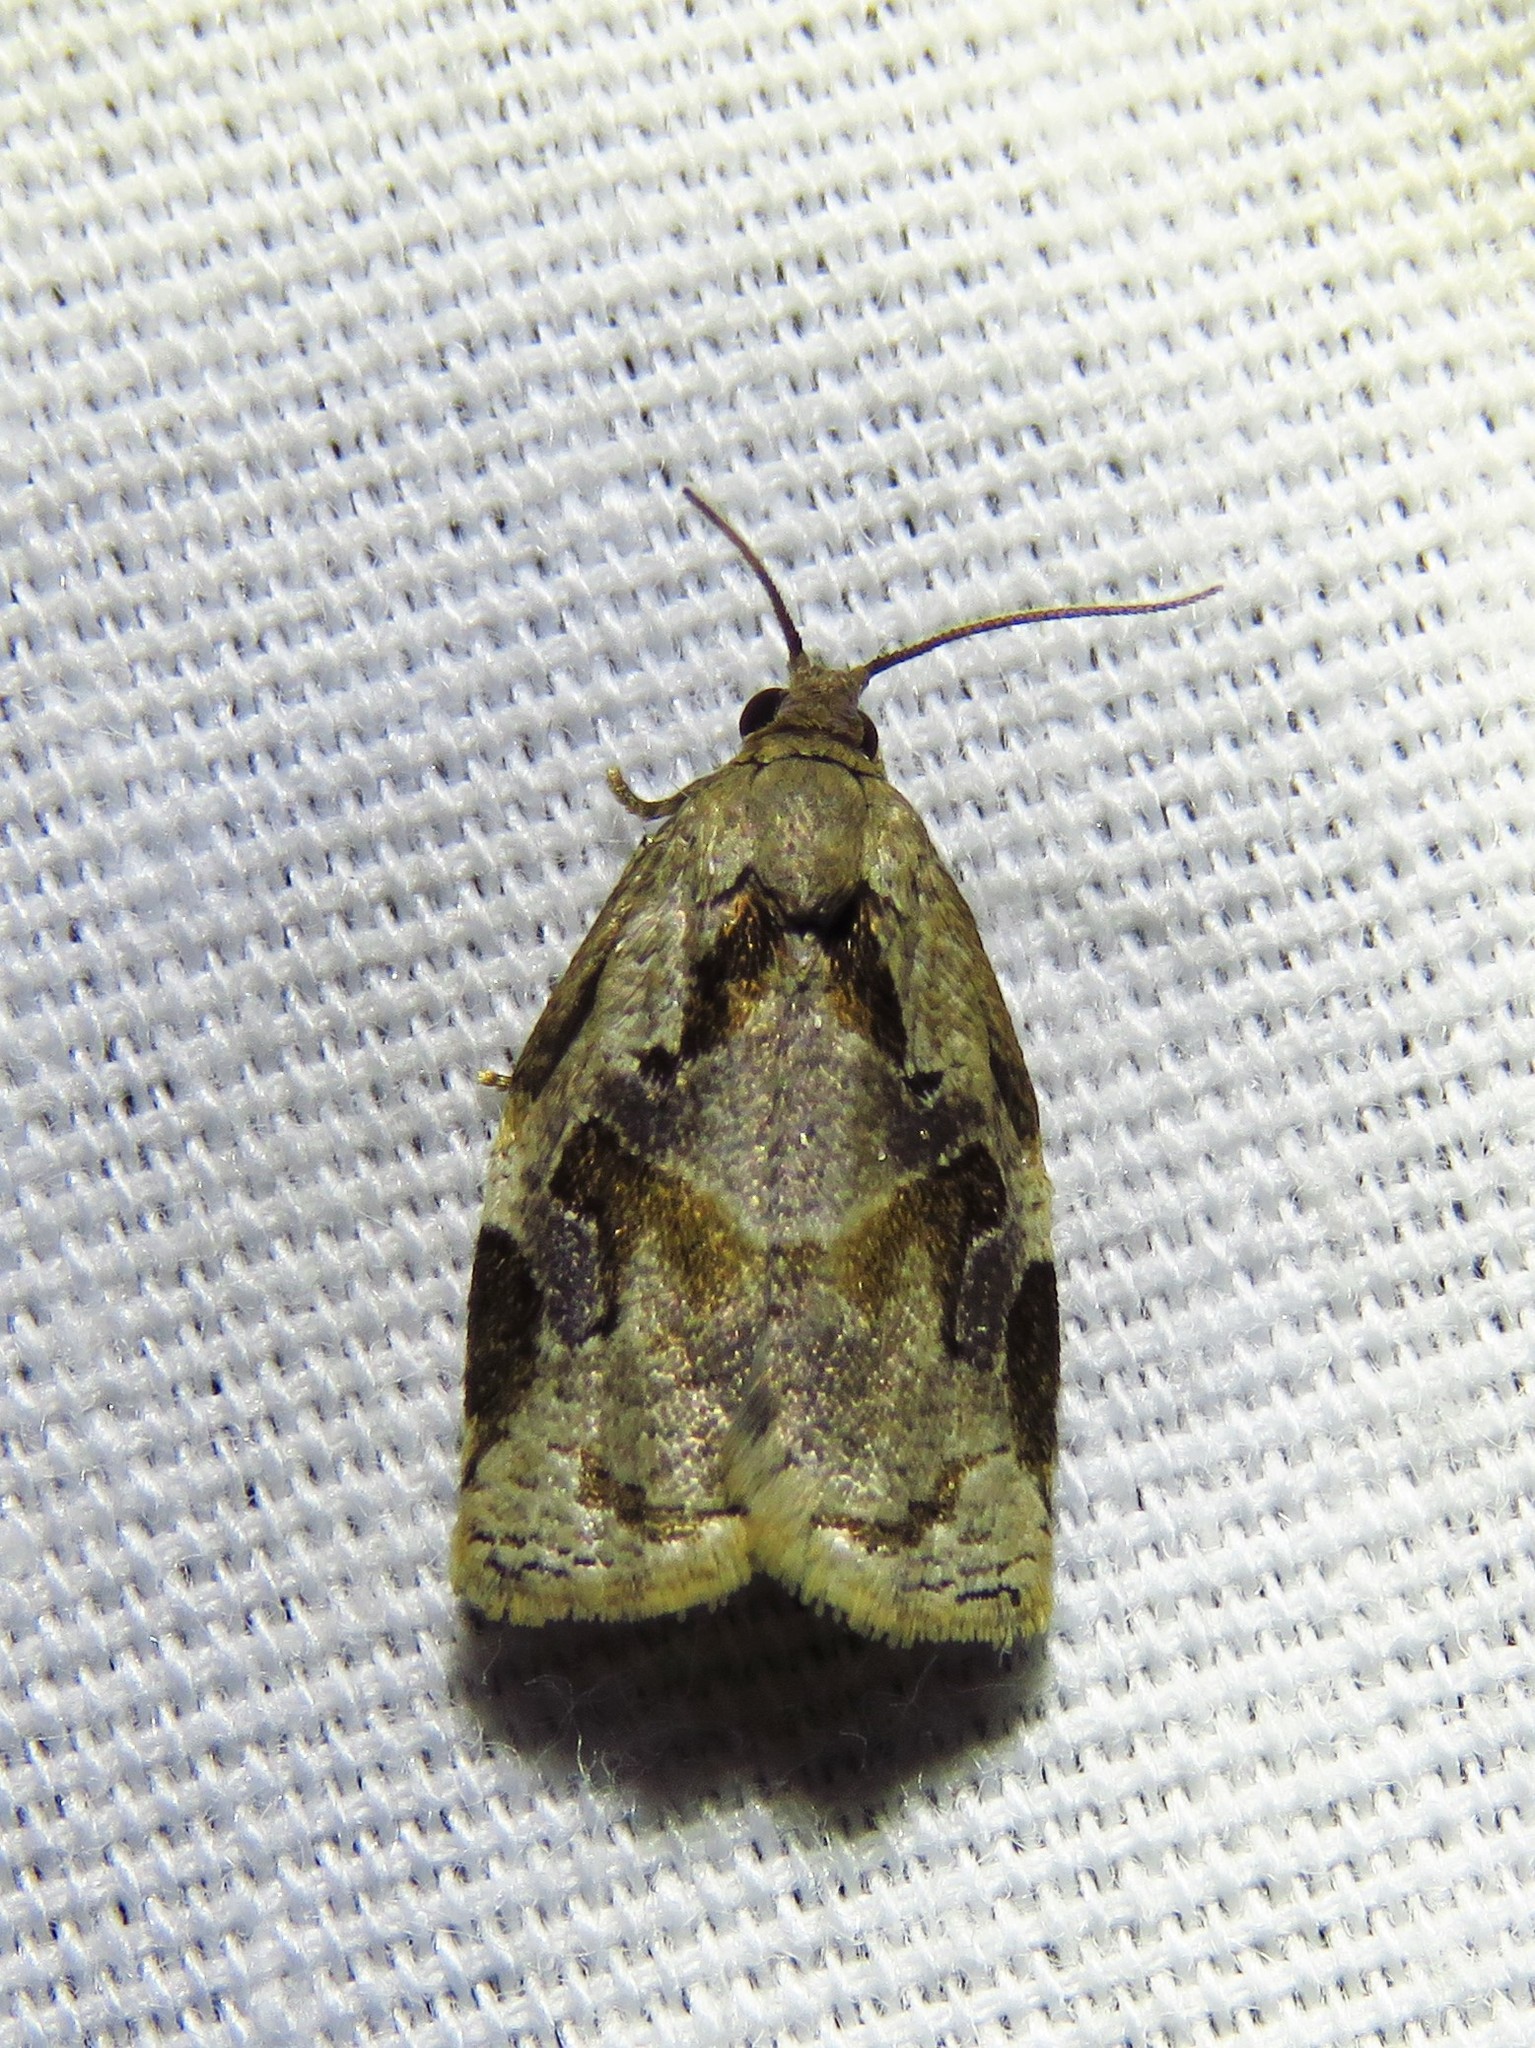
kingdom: Animalia
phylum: Arthropoda
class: Insecta
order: Lepidoptera
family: Tortricidae
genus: Archips
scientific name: Archips grisea
